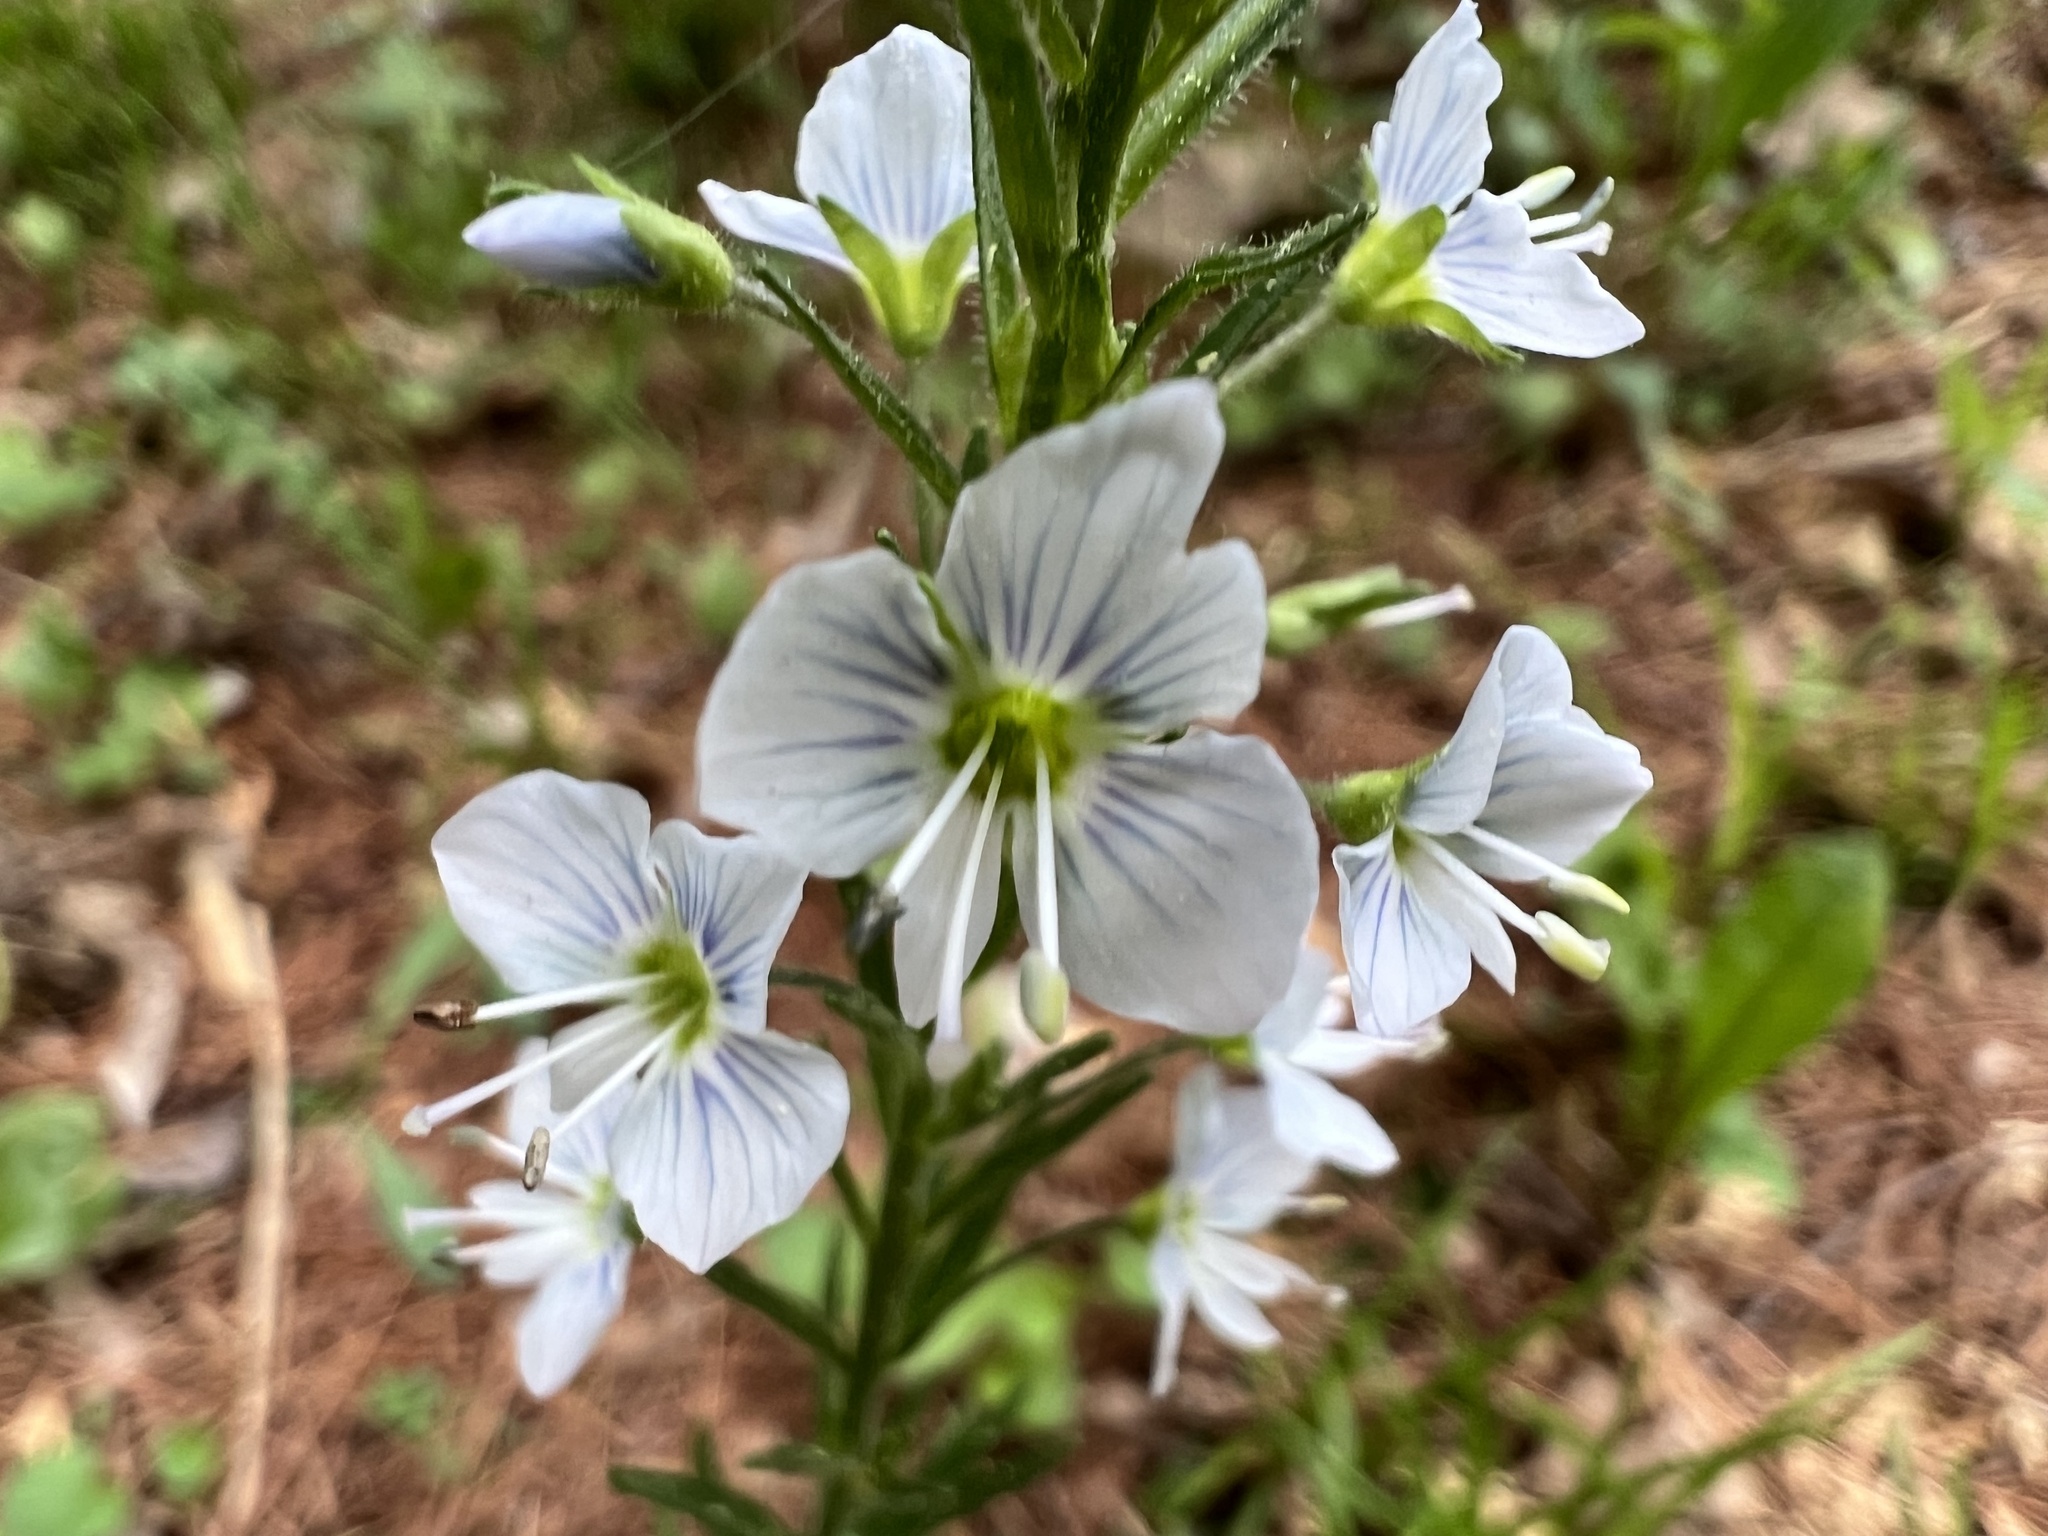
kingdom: Plantae
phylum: Tracheophyta
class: Magnoliopsida
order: Lamiales
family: Plantaginaceae
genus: Veronica
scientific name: Veronica gentianoides
